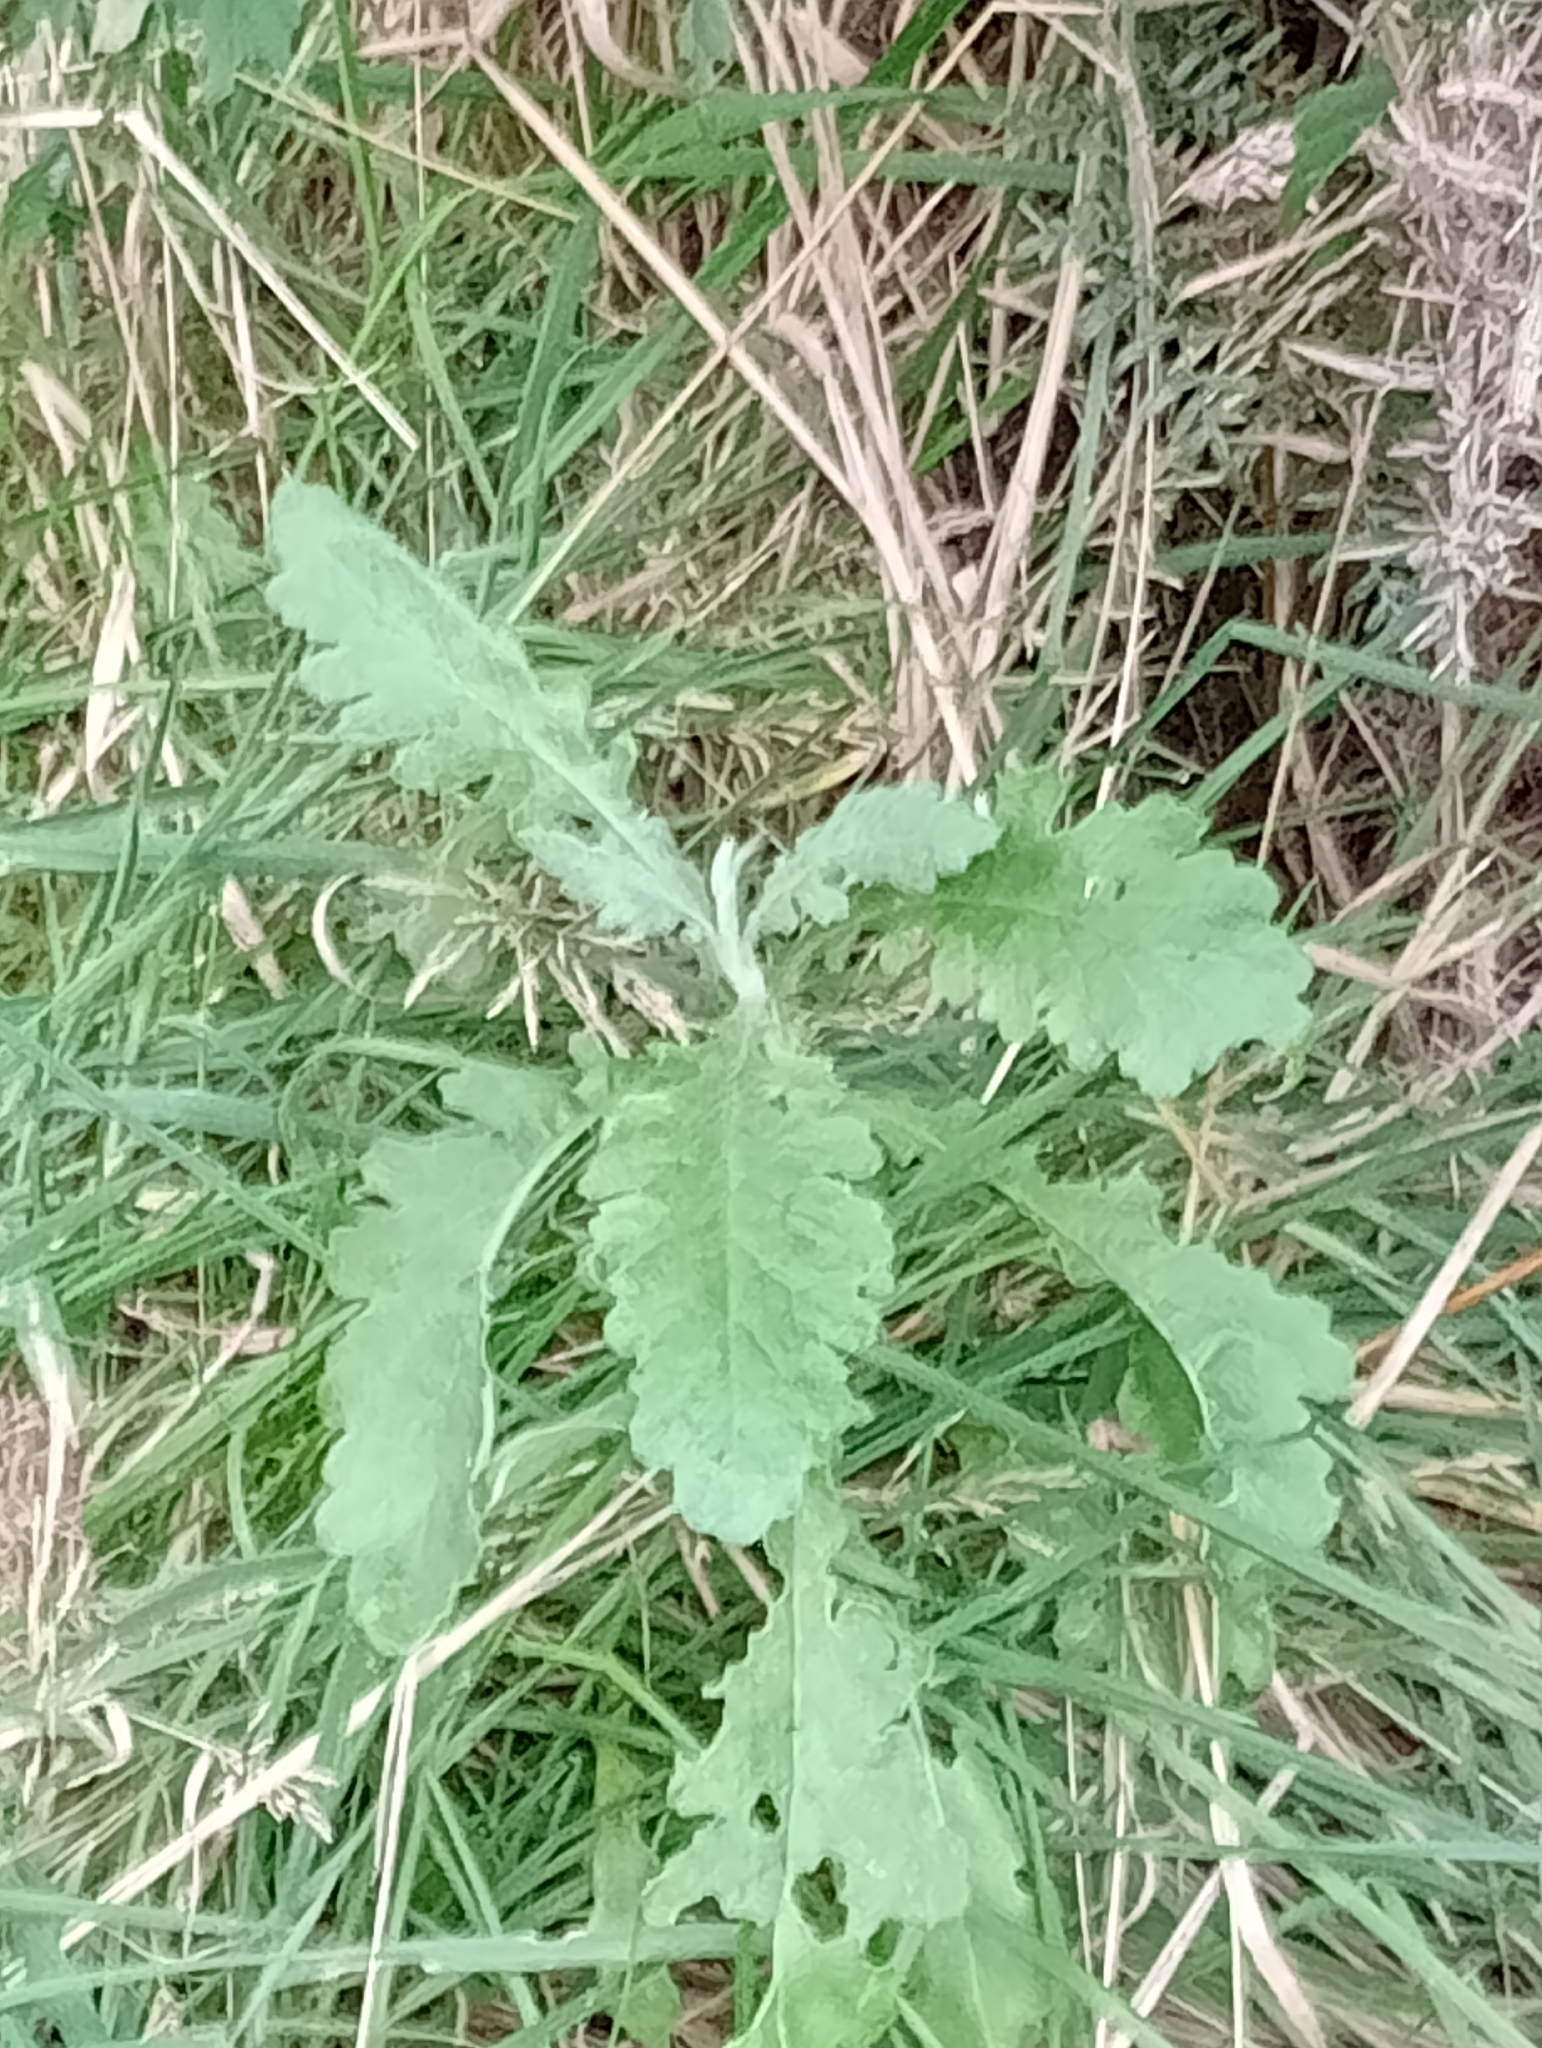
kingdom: Plantae
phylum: Tracheophyta
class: Magnoliopsida
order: Asterales
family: Asteraceae
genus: Senecio
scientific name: Senecio glomeratus
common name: Cutleaf burnweed
